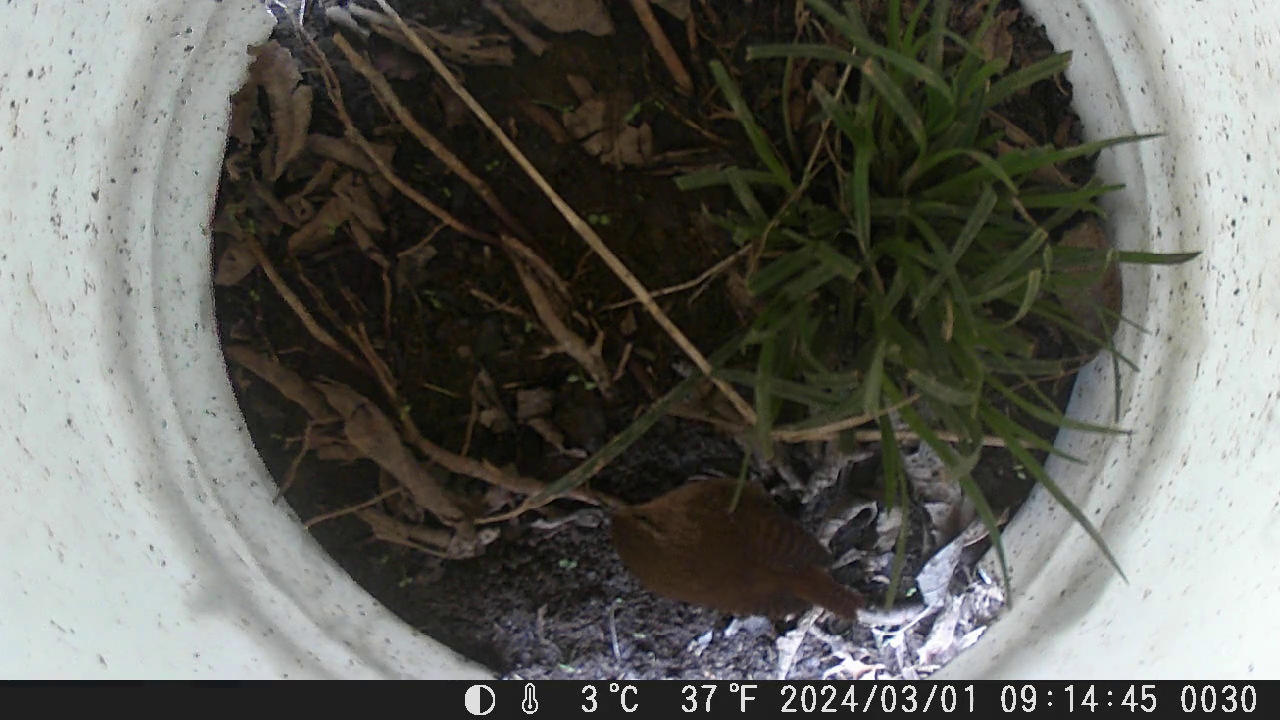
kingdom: Animalia
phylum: Chordata
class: Aves
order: Passeriformes
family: Troglodytidae
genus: Troglodytes
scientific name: Troglodytes hiemalis
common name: Winter wren
